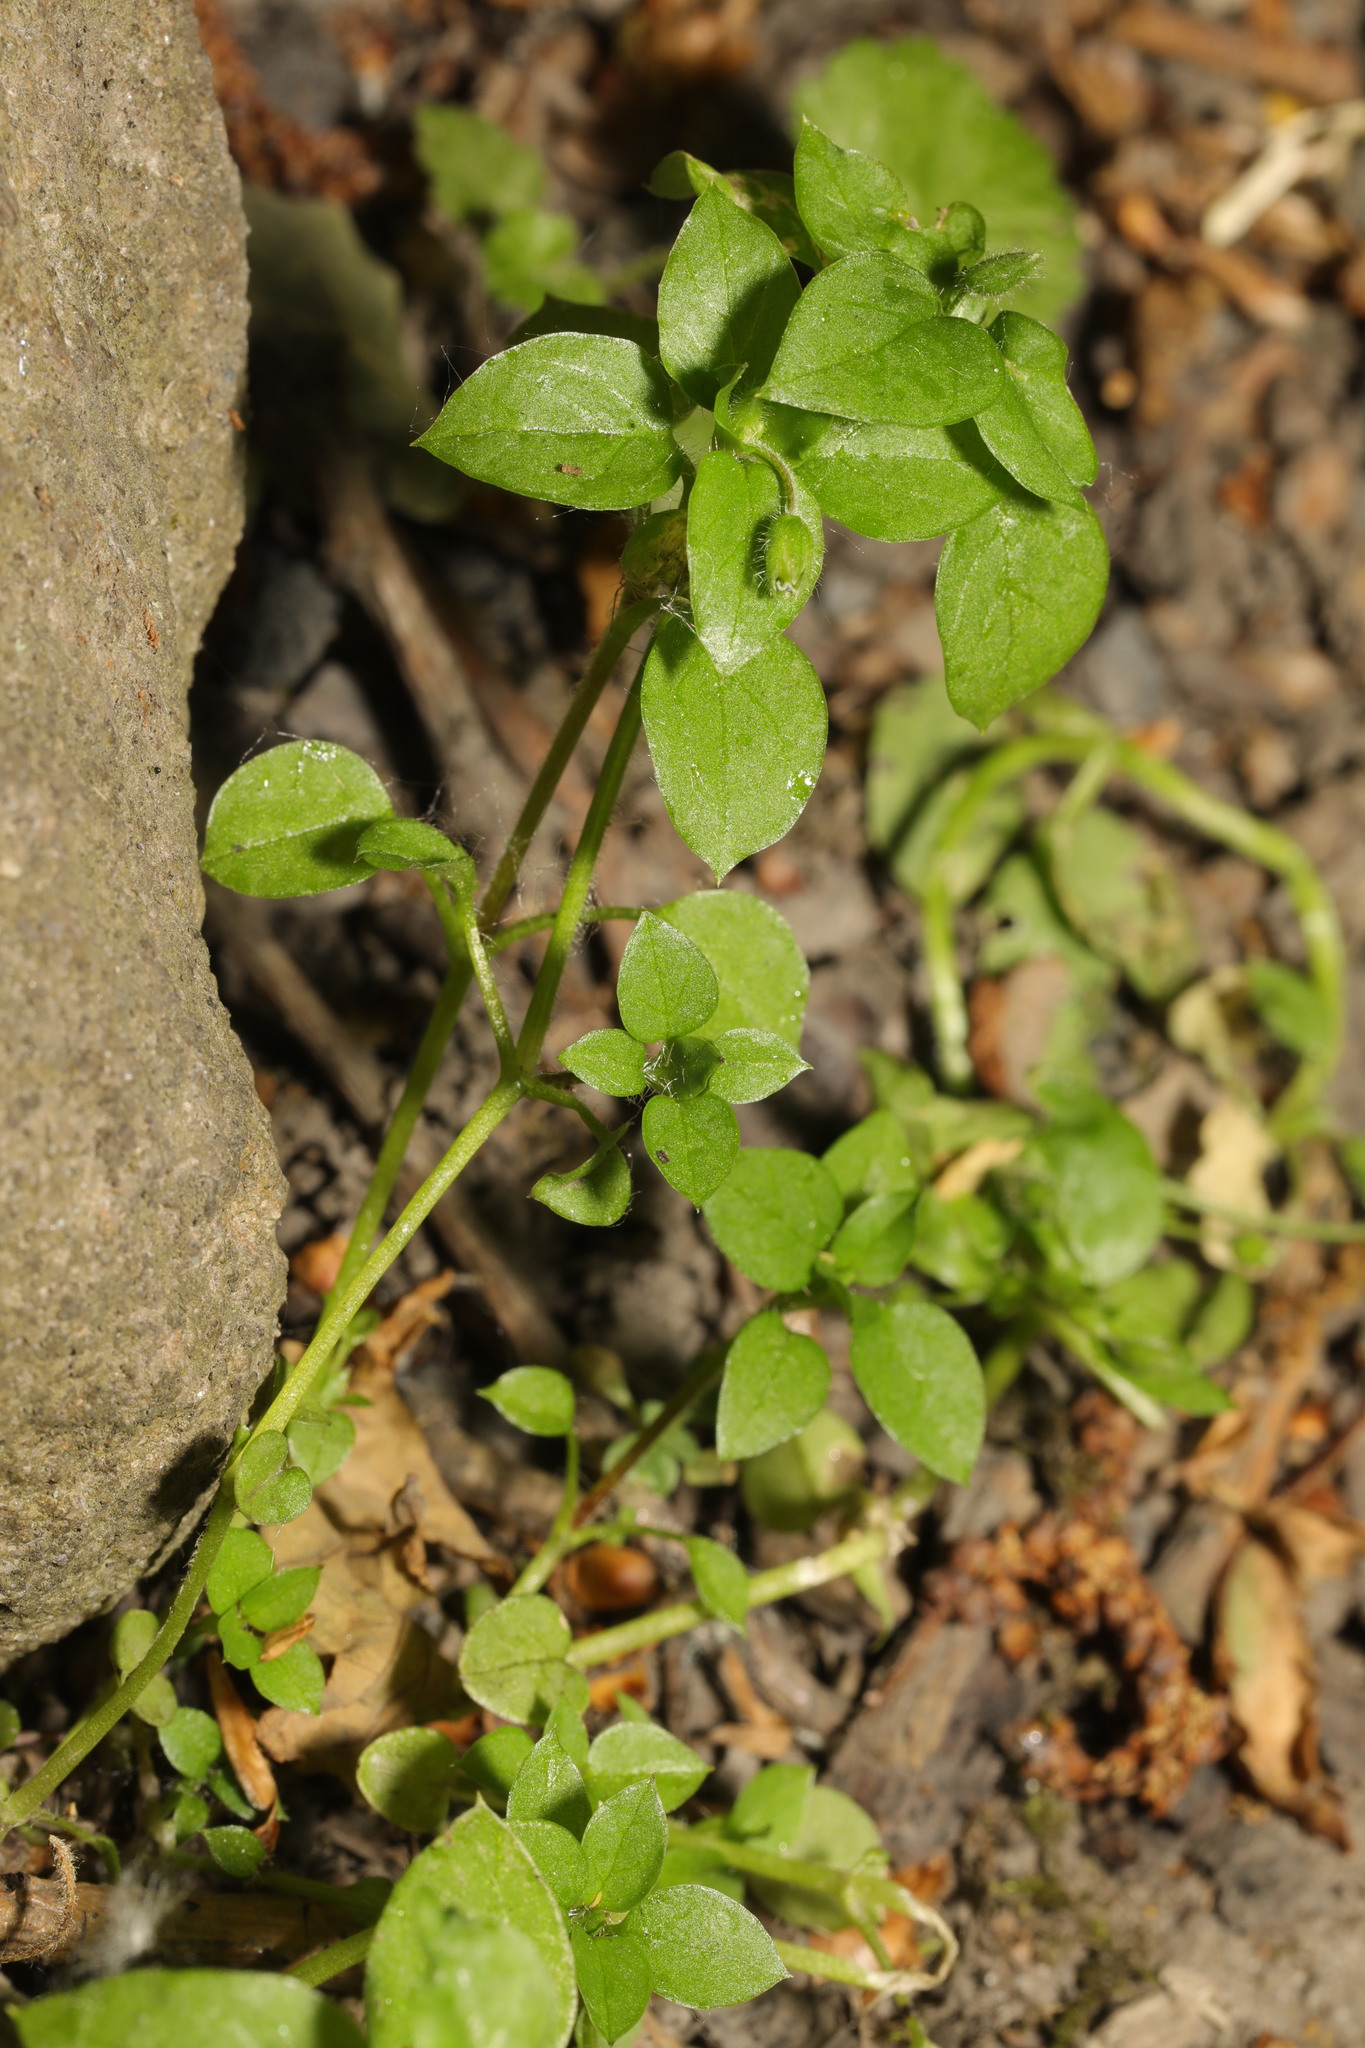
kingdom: Plantae
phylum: Tracheophyta
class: Magnoliopsida
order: Caryophyllales
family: Caryophyllaceae
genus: Stellaria
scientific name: Stellaria media
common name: Common chickweed
